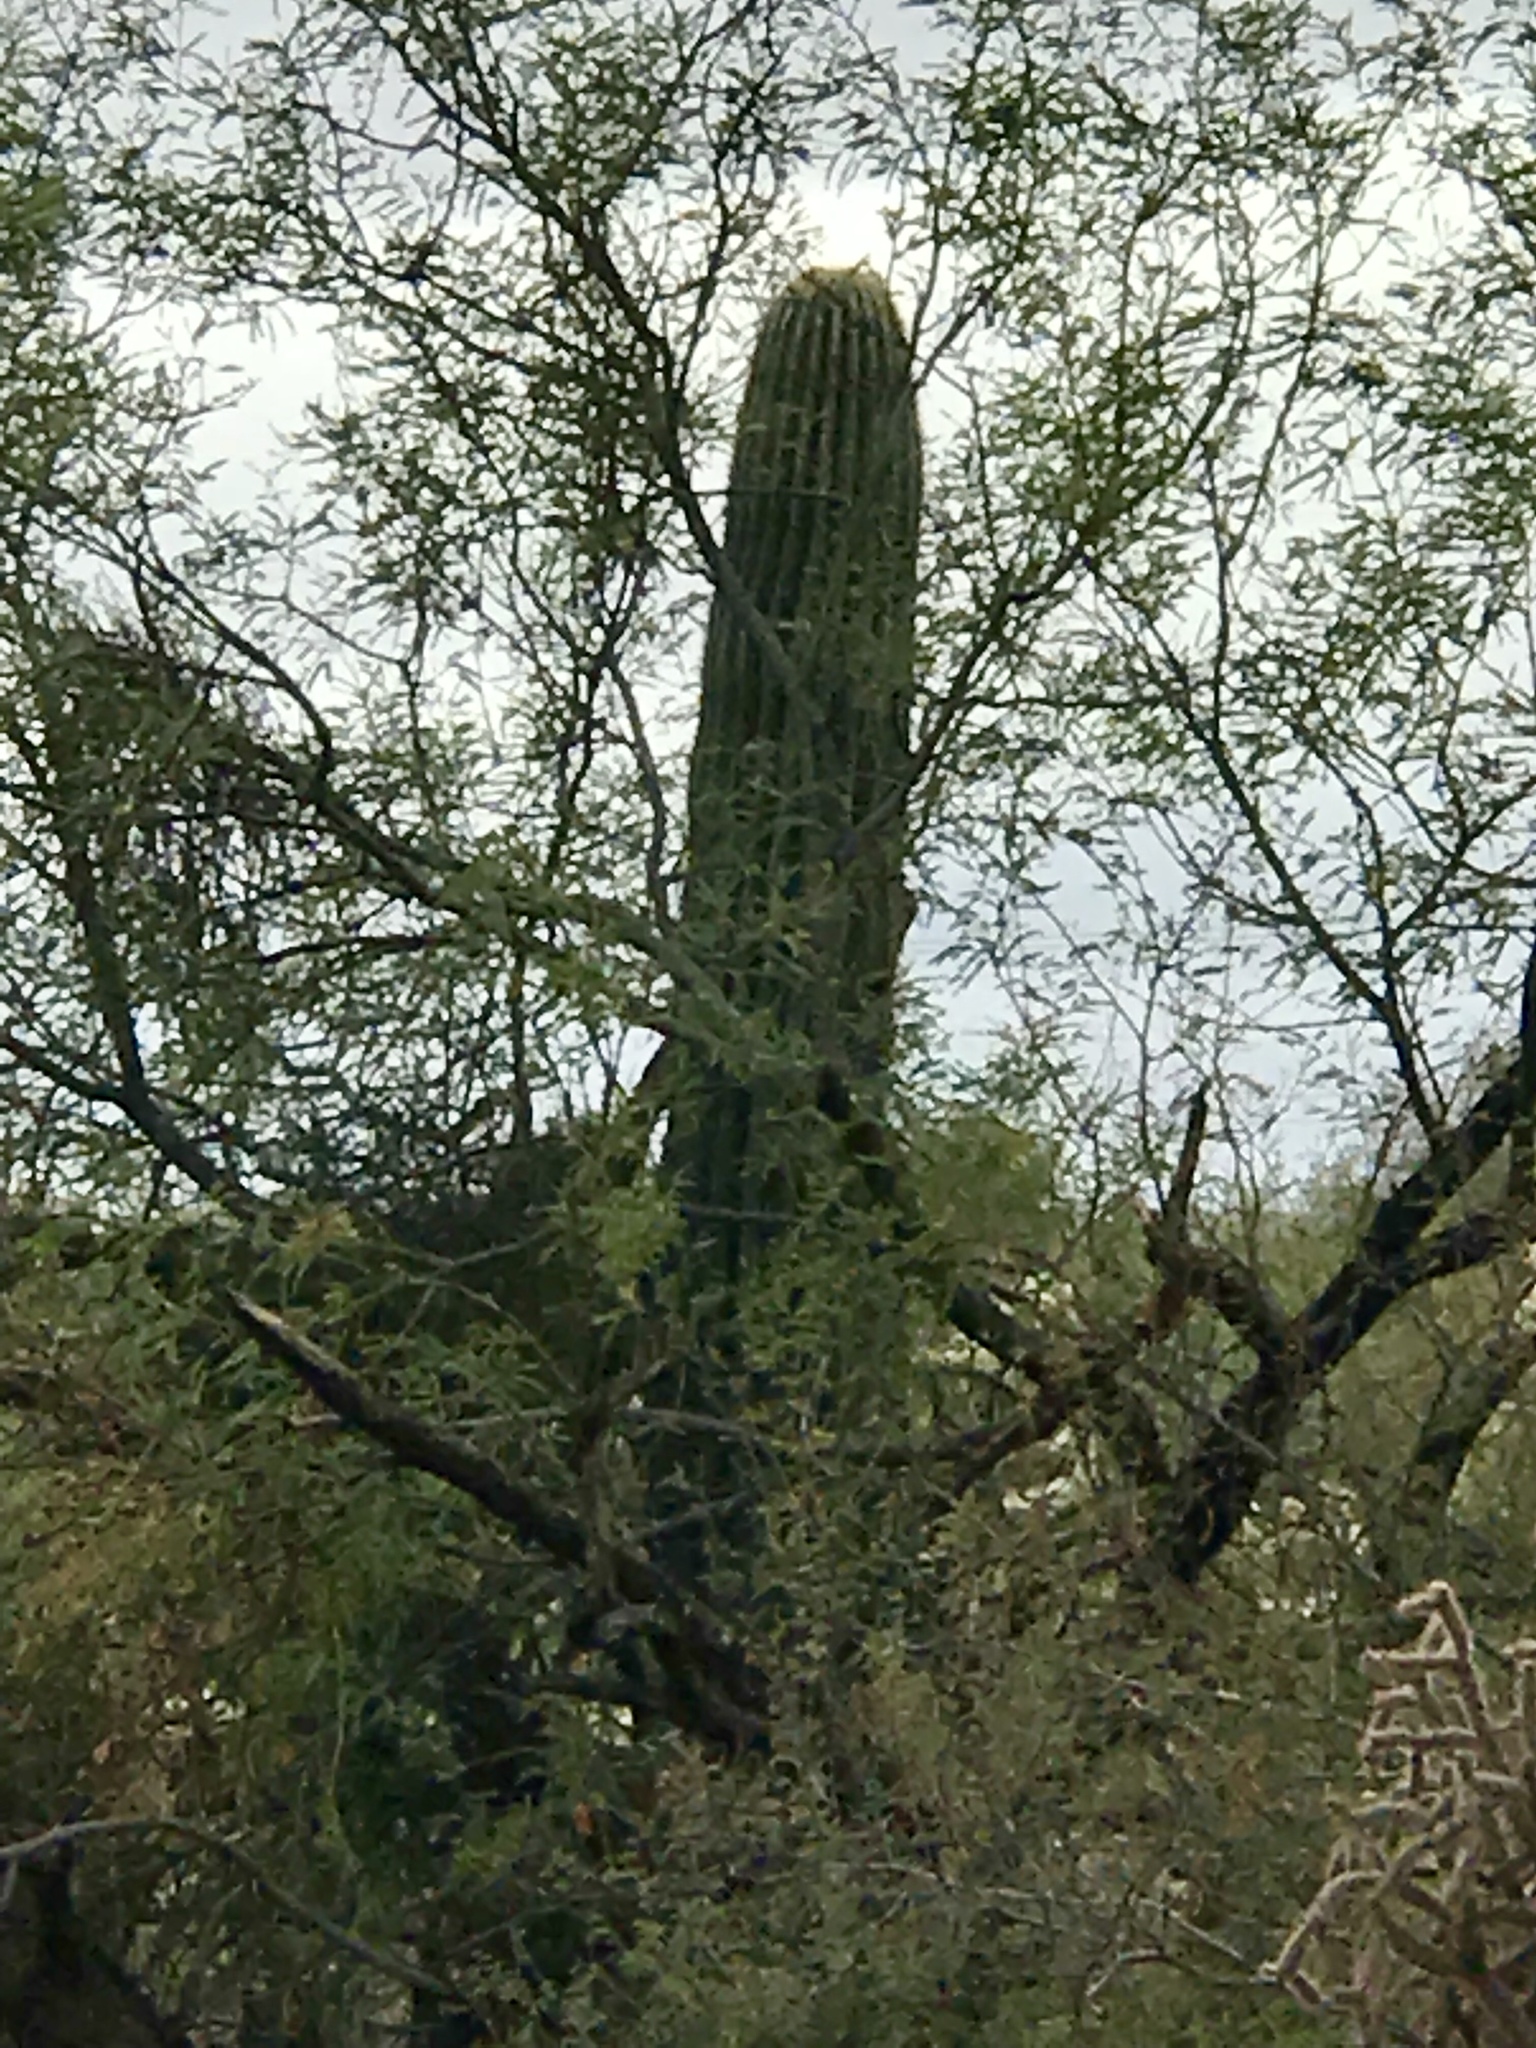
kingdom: Plantae
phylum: Tracheophyta
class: Magnoliopsida
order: Caryophyllales
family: Cactaceae
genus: Carnegiea
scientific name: Carnegiea gigantea
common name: Saguaro
